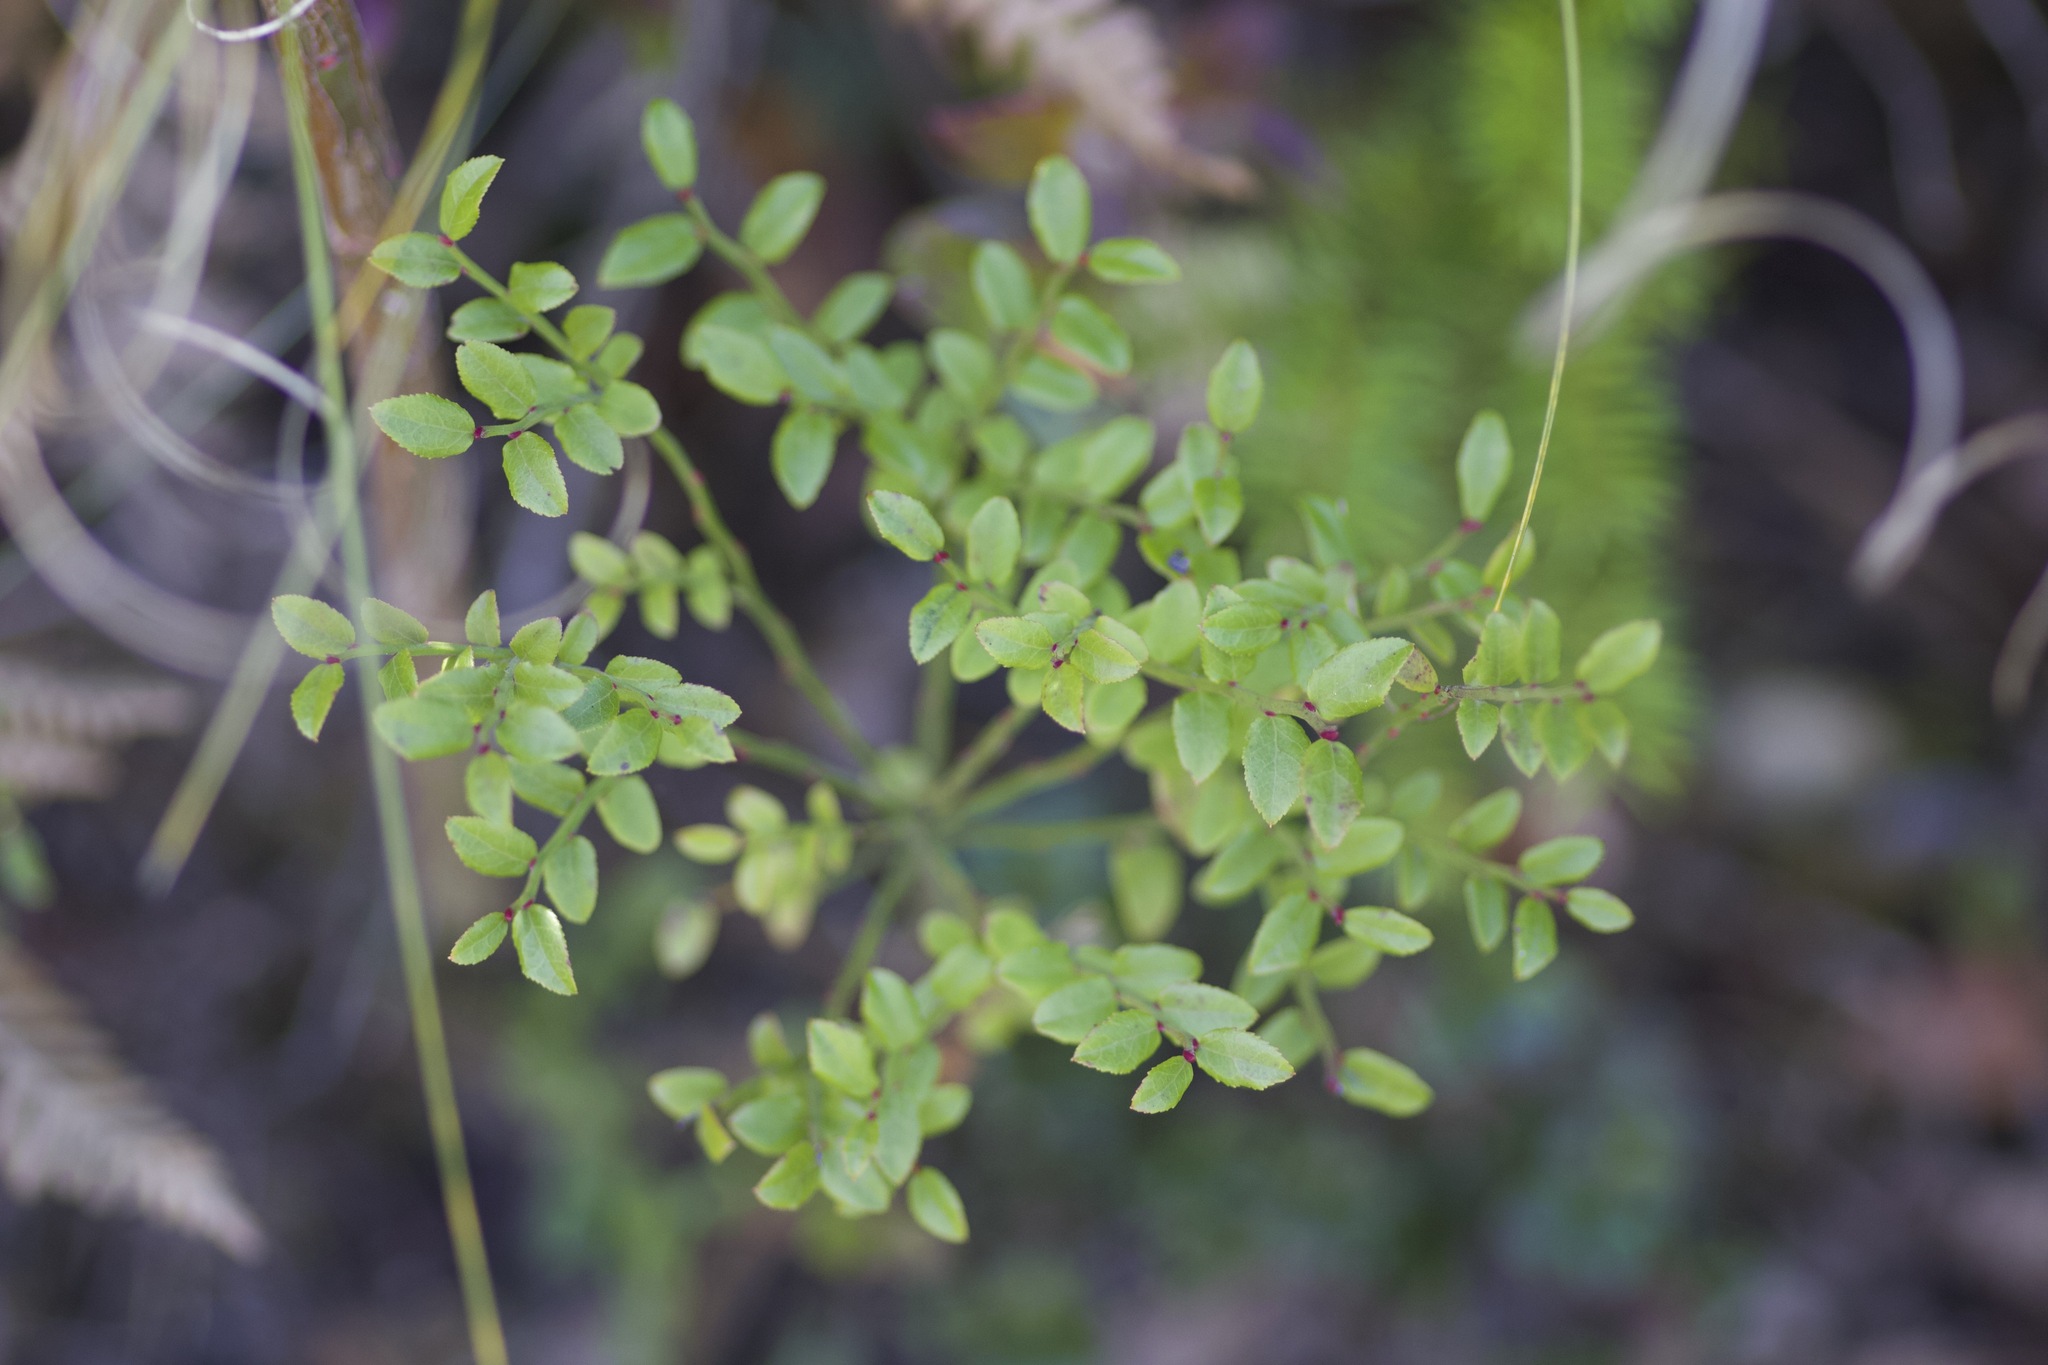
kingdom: Plantae
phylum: Tracheophyta
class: Magnoliopsida
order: Ericales
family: Ericaceae
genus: Vaccinium
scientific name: Vaccinium parvifolium
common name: Red-huckleberry
